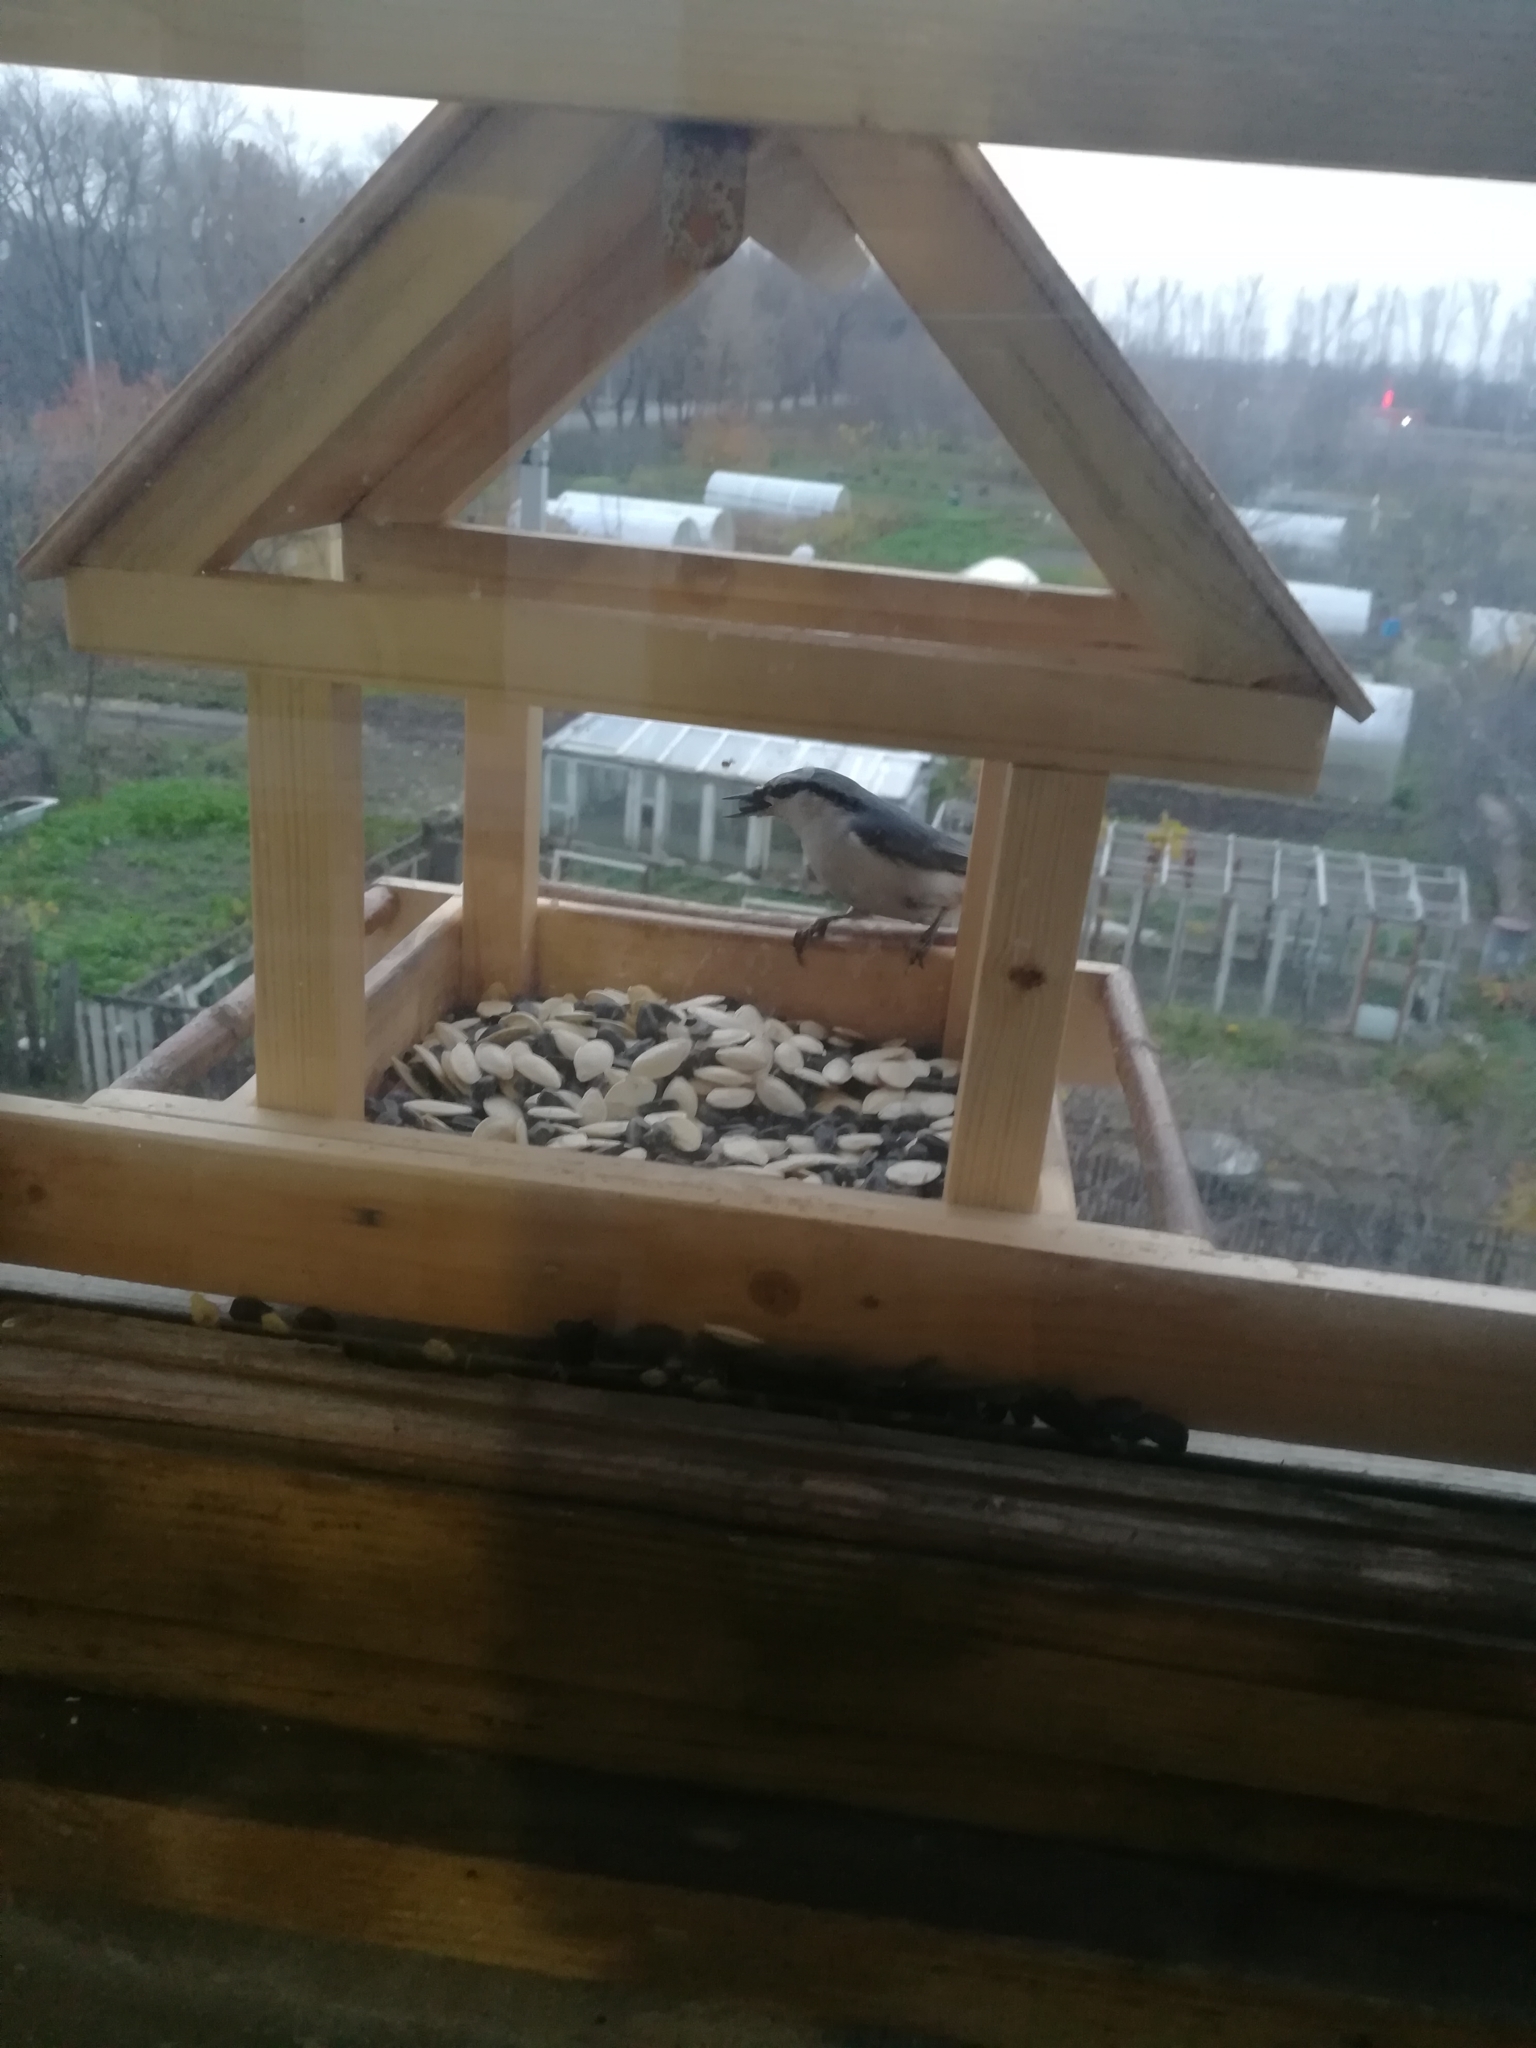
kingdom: Animalia
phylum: Chordata
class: Aves
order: Passeriformes
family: Sittidae
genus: Sitta
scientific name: Sitta europaea
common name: Eurasian nuthatch
